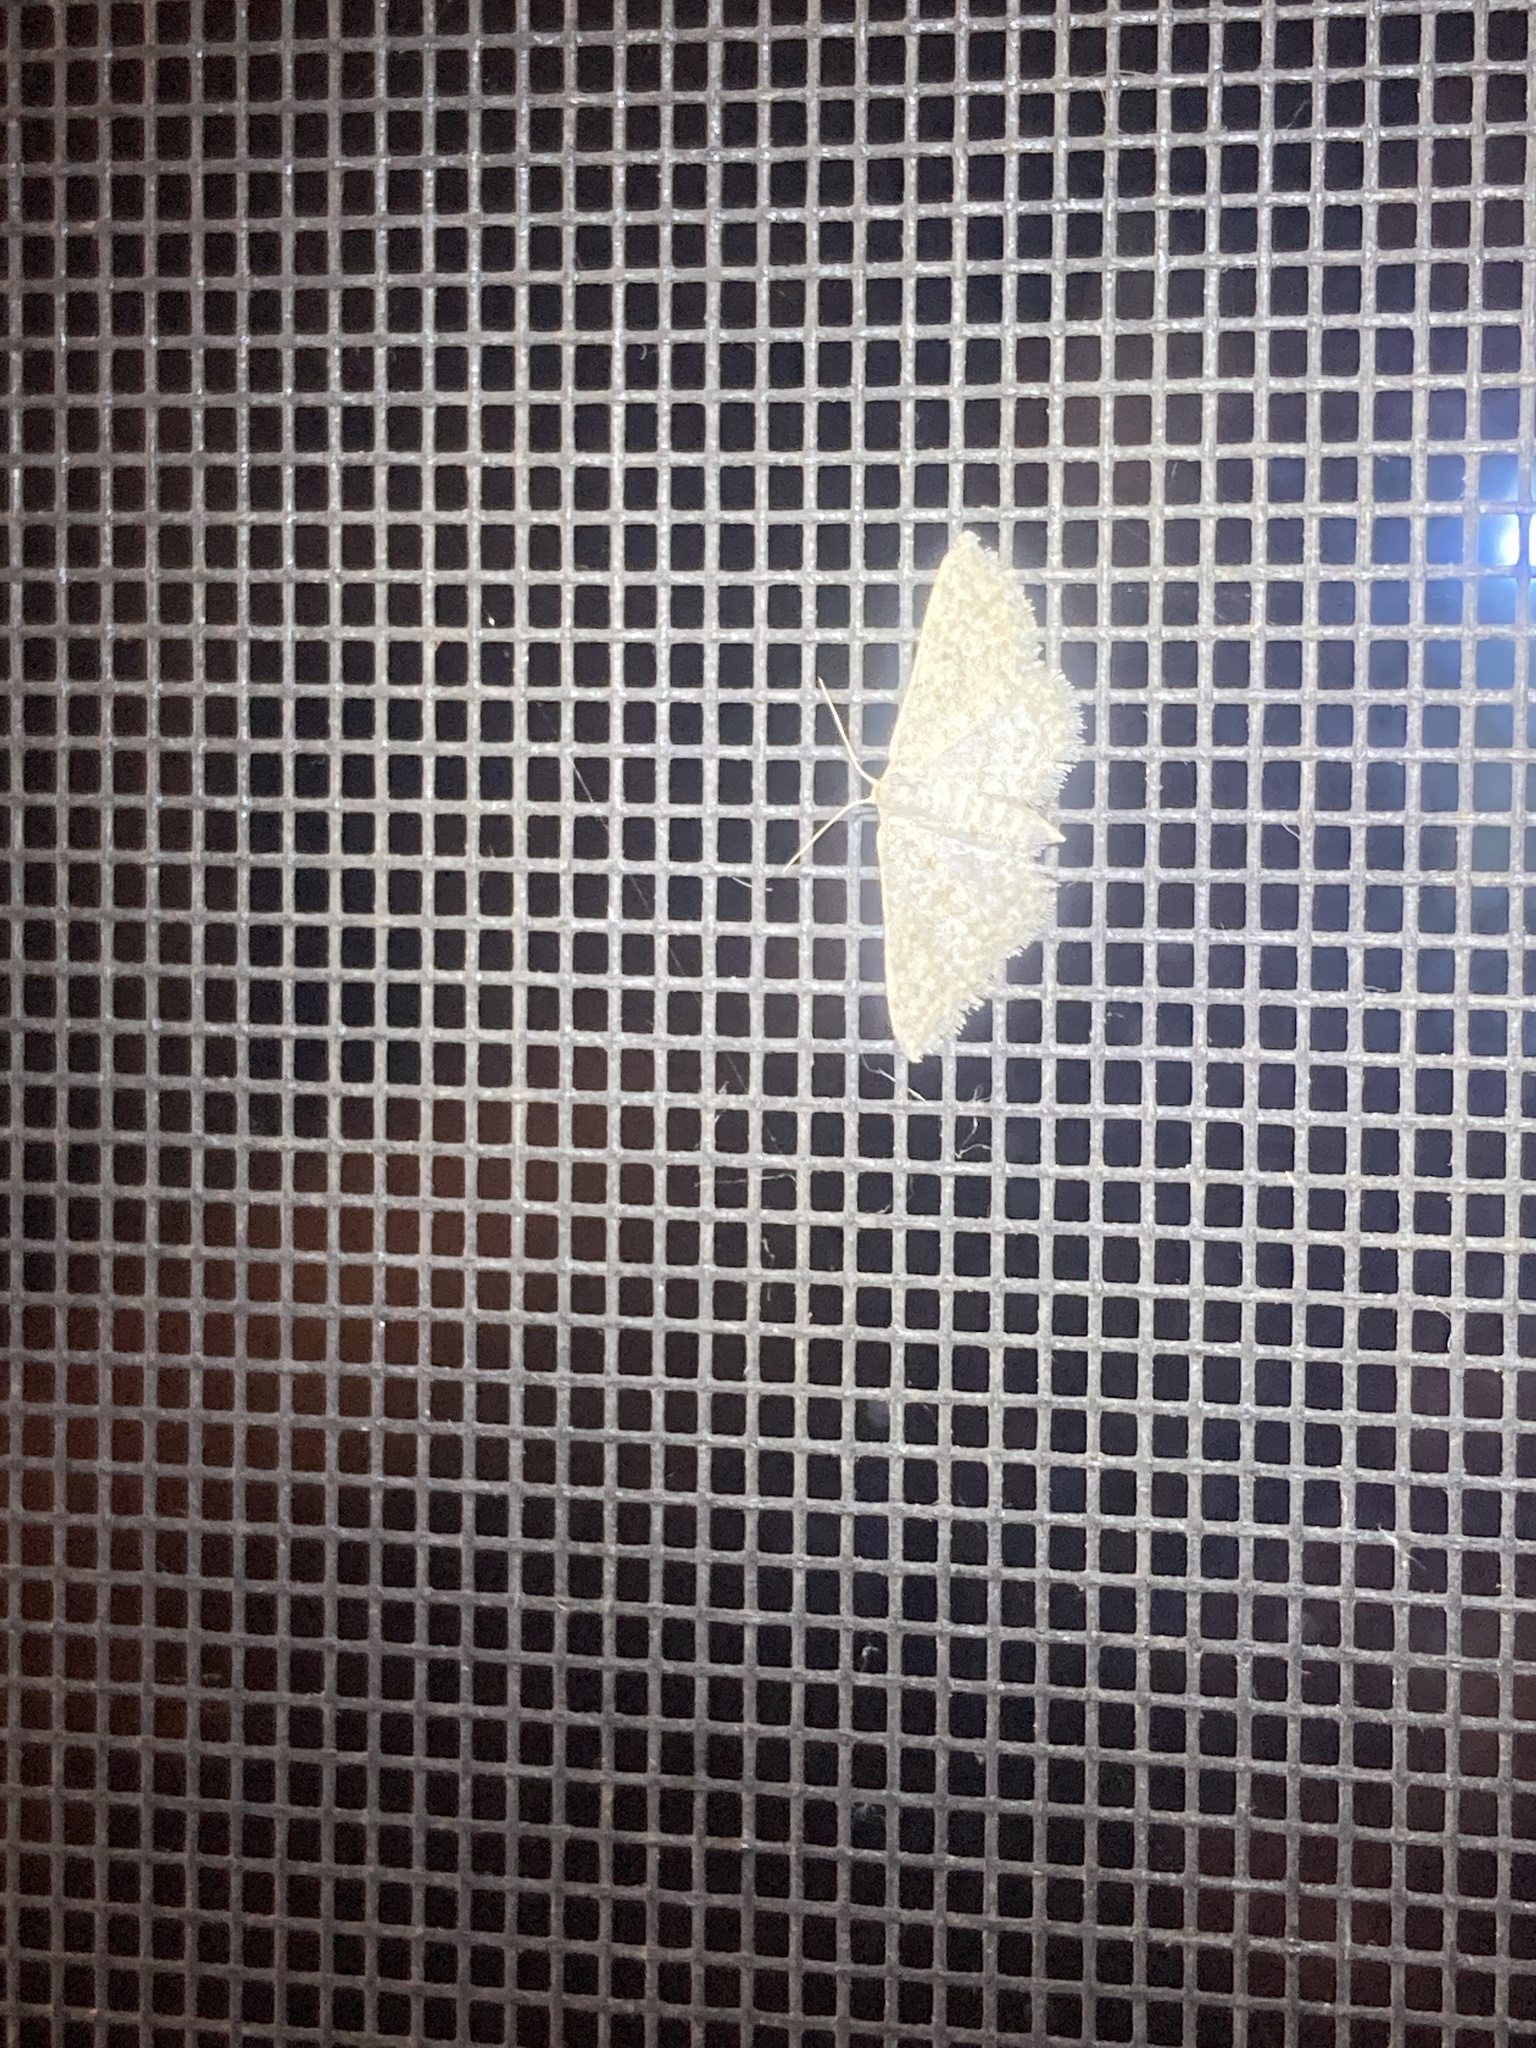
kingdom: Animalia
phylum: Arthropoda
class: Insecta
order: Lepidoptera
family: Geometridae
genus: Pleuroprucha
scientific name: Pleuroprucha insulsaria
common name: Common tan wave
